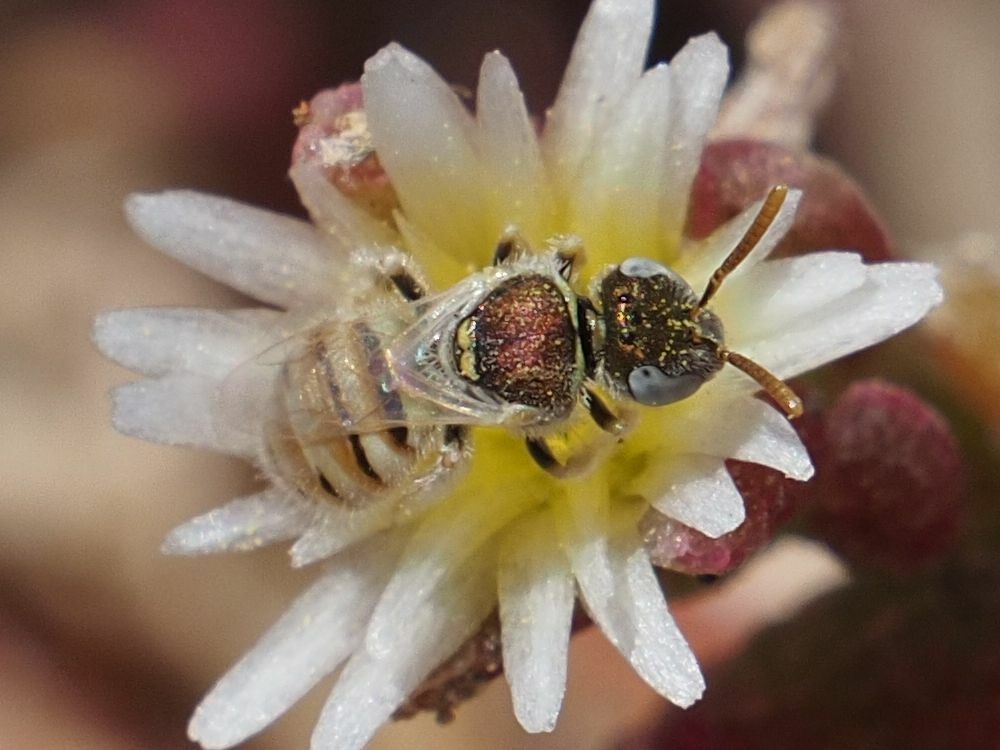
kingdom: Animalia
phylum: Arthropoda
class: Insecta
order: Hymenoptera
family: Halictidae
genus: Nomioides
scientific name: Nomioides deceptor
